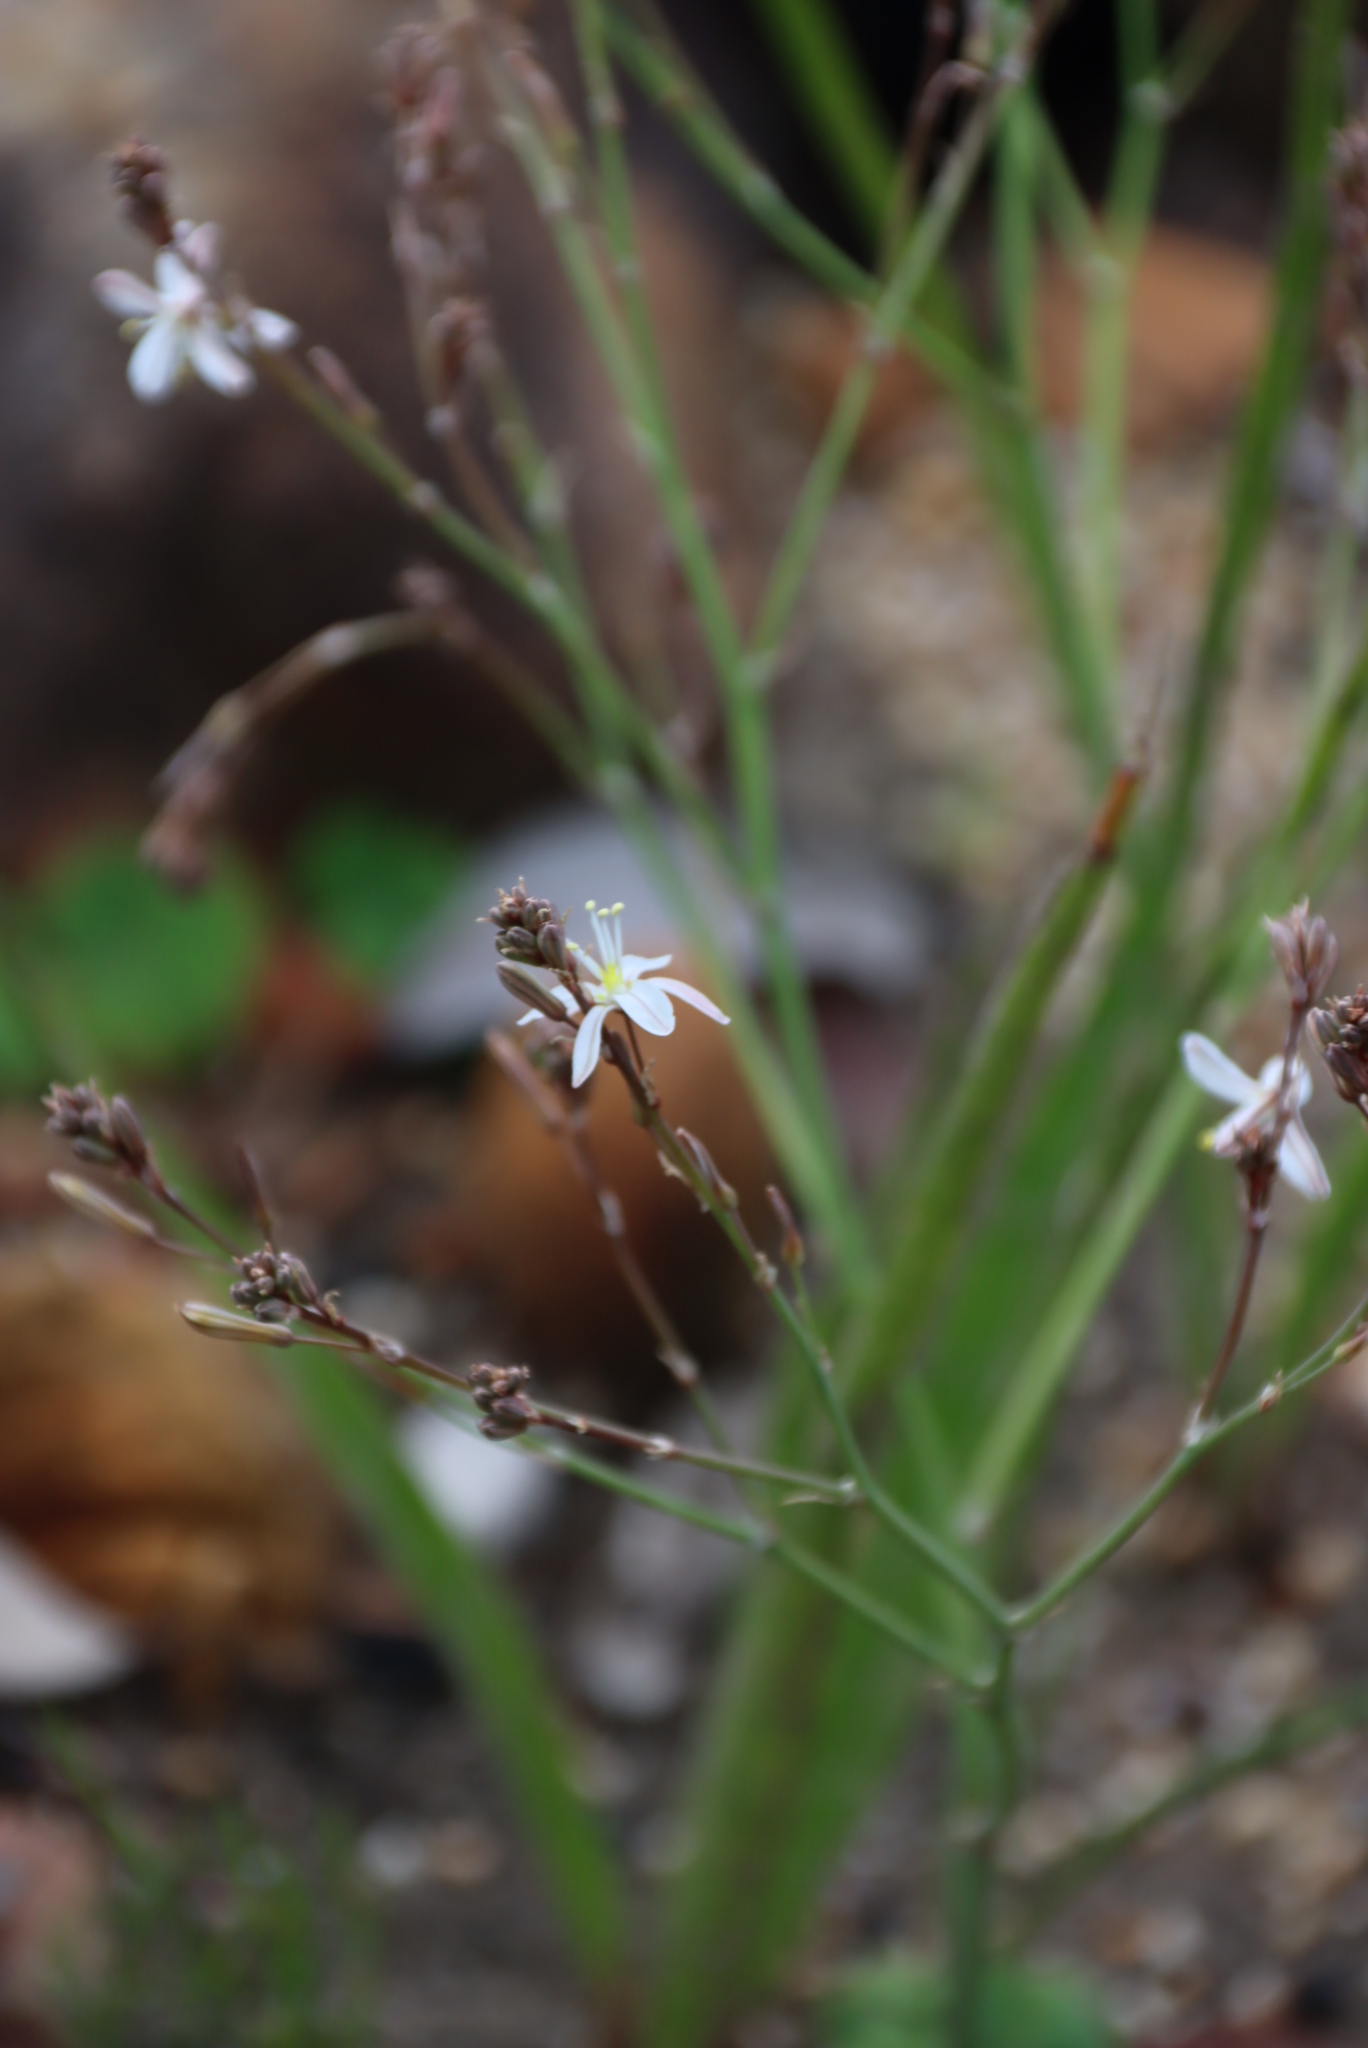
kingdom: Plantae
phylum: Tracheophyta
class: Liliopsida
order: Asparagales
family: Asphodelaceae
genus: Trachyandra
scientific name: Trachyandra revoluta
